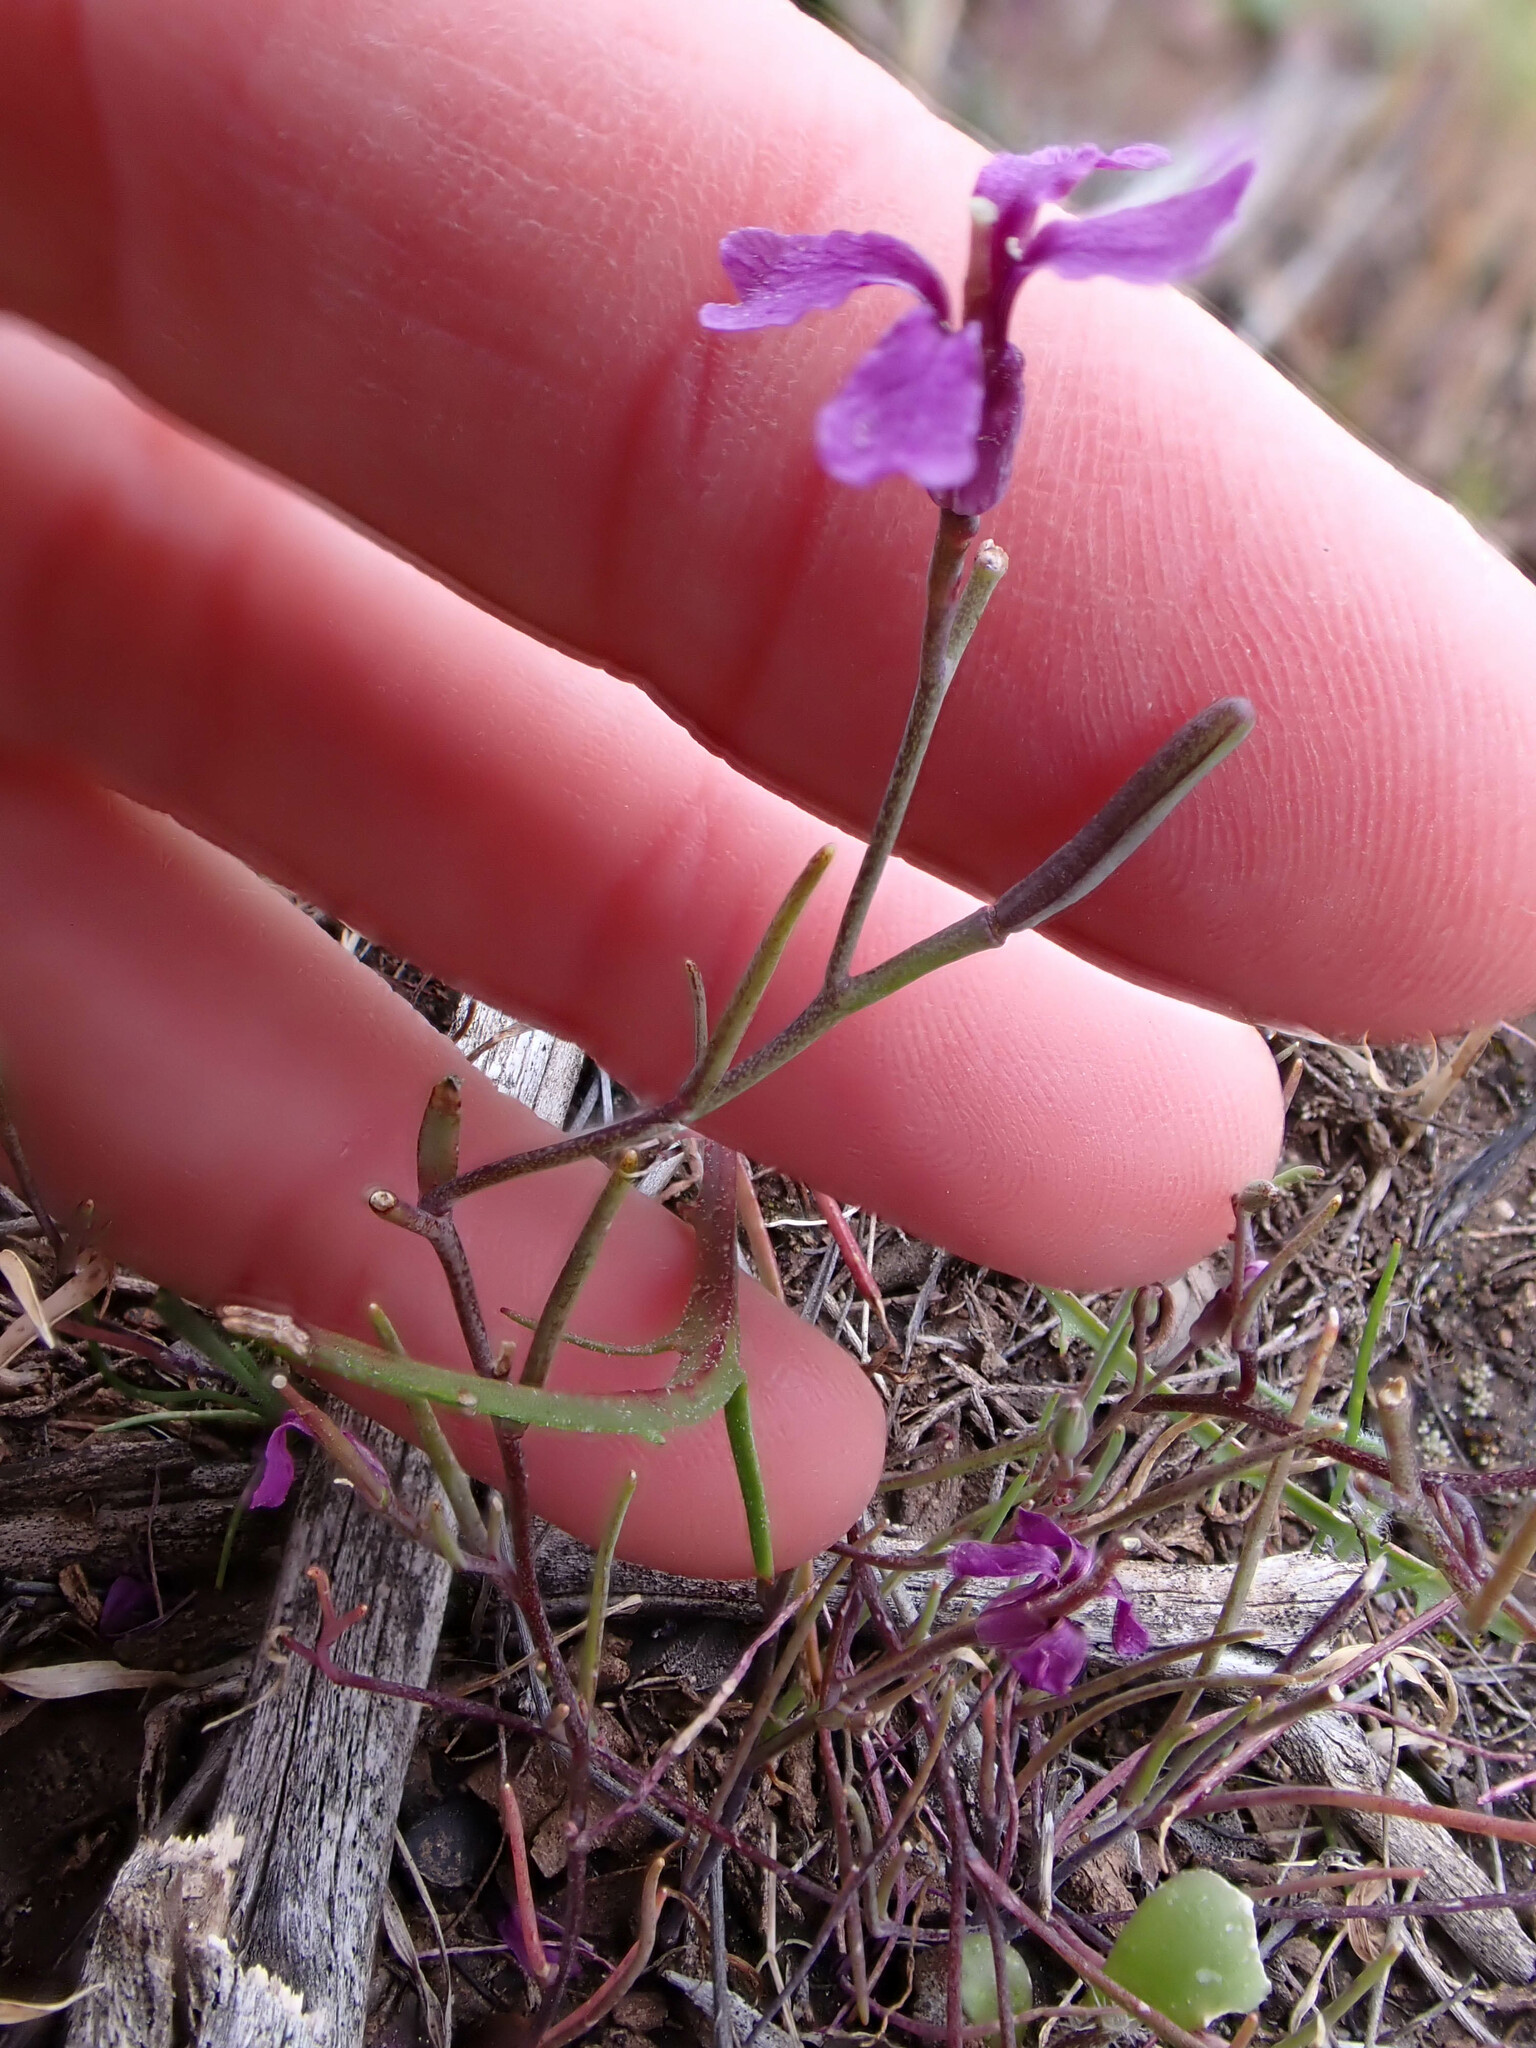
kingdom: Plantae
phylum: Tracheophyta
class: Magnoliopsida
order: Brassicales
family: Brassicaceae
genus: Streptanthus
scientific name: Streptanthus hammittii
